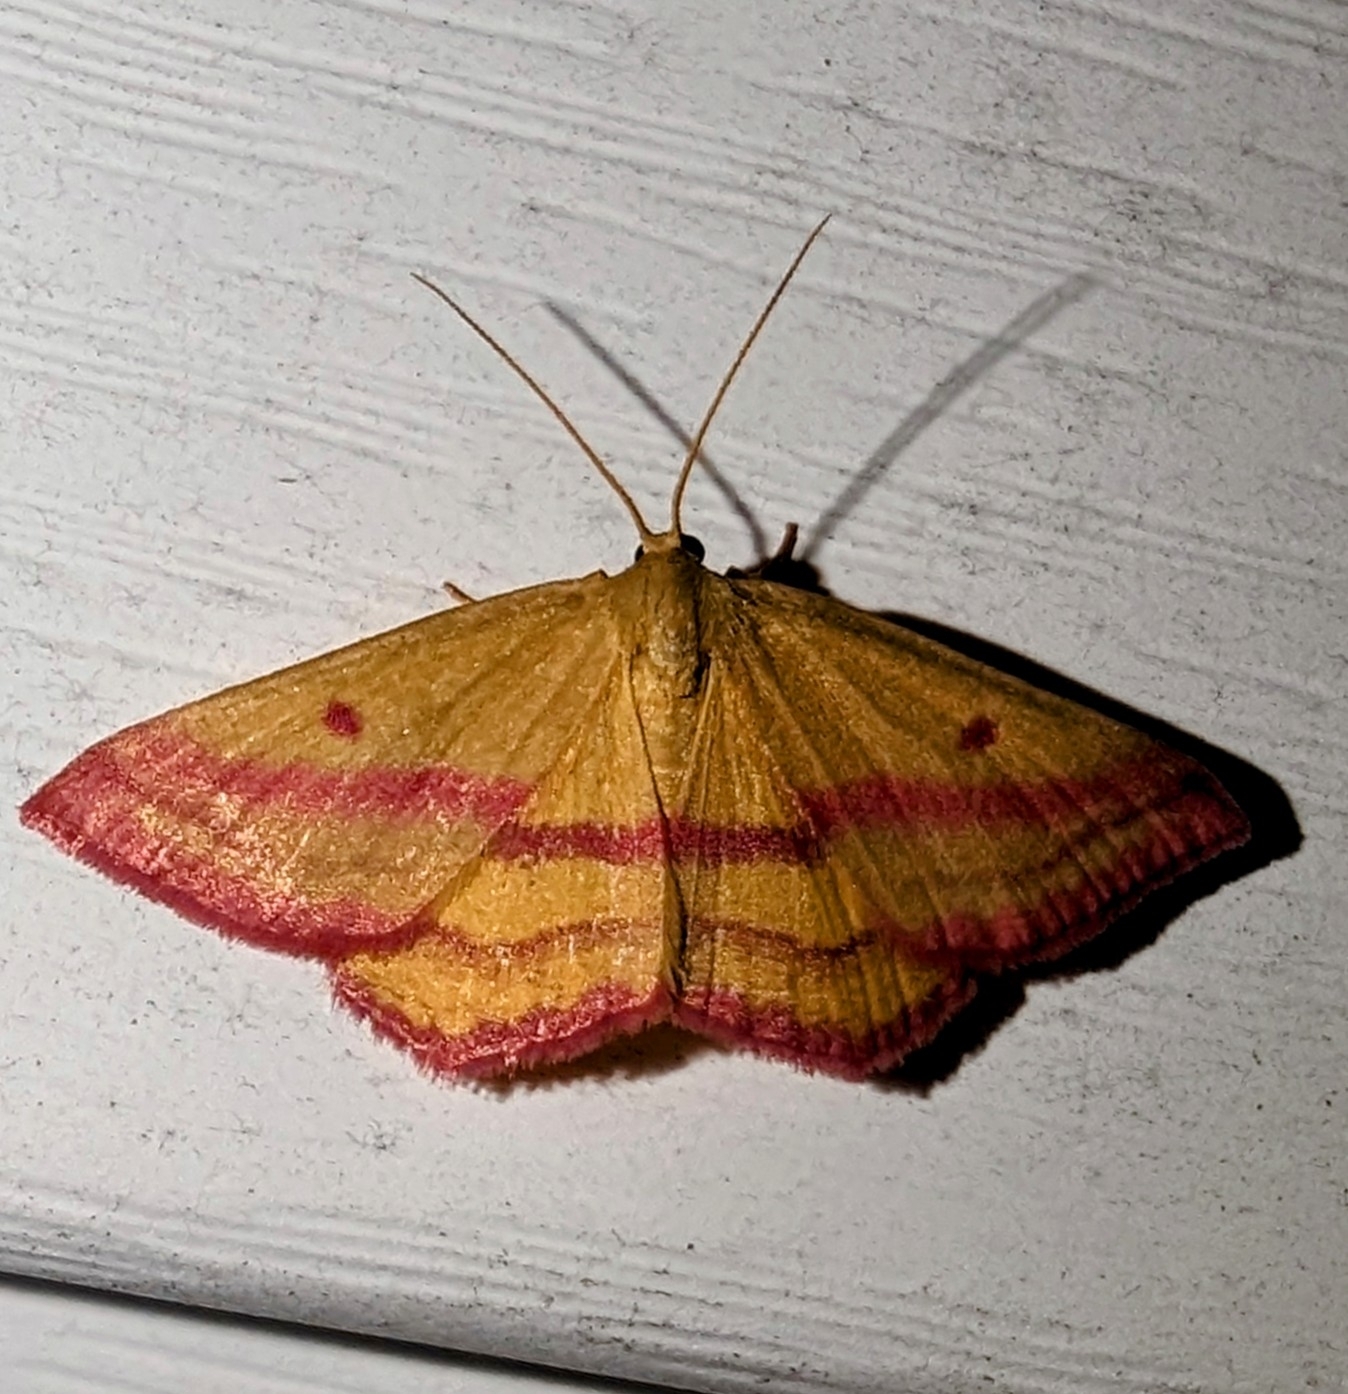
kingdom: Animalia
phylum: Arthropoda
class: Insecta
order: Lepidoptera
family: Geometridae
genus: Haematopis
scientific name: Haematopis grataria
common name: Chickweed geometer
